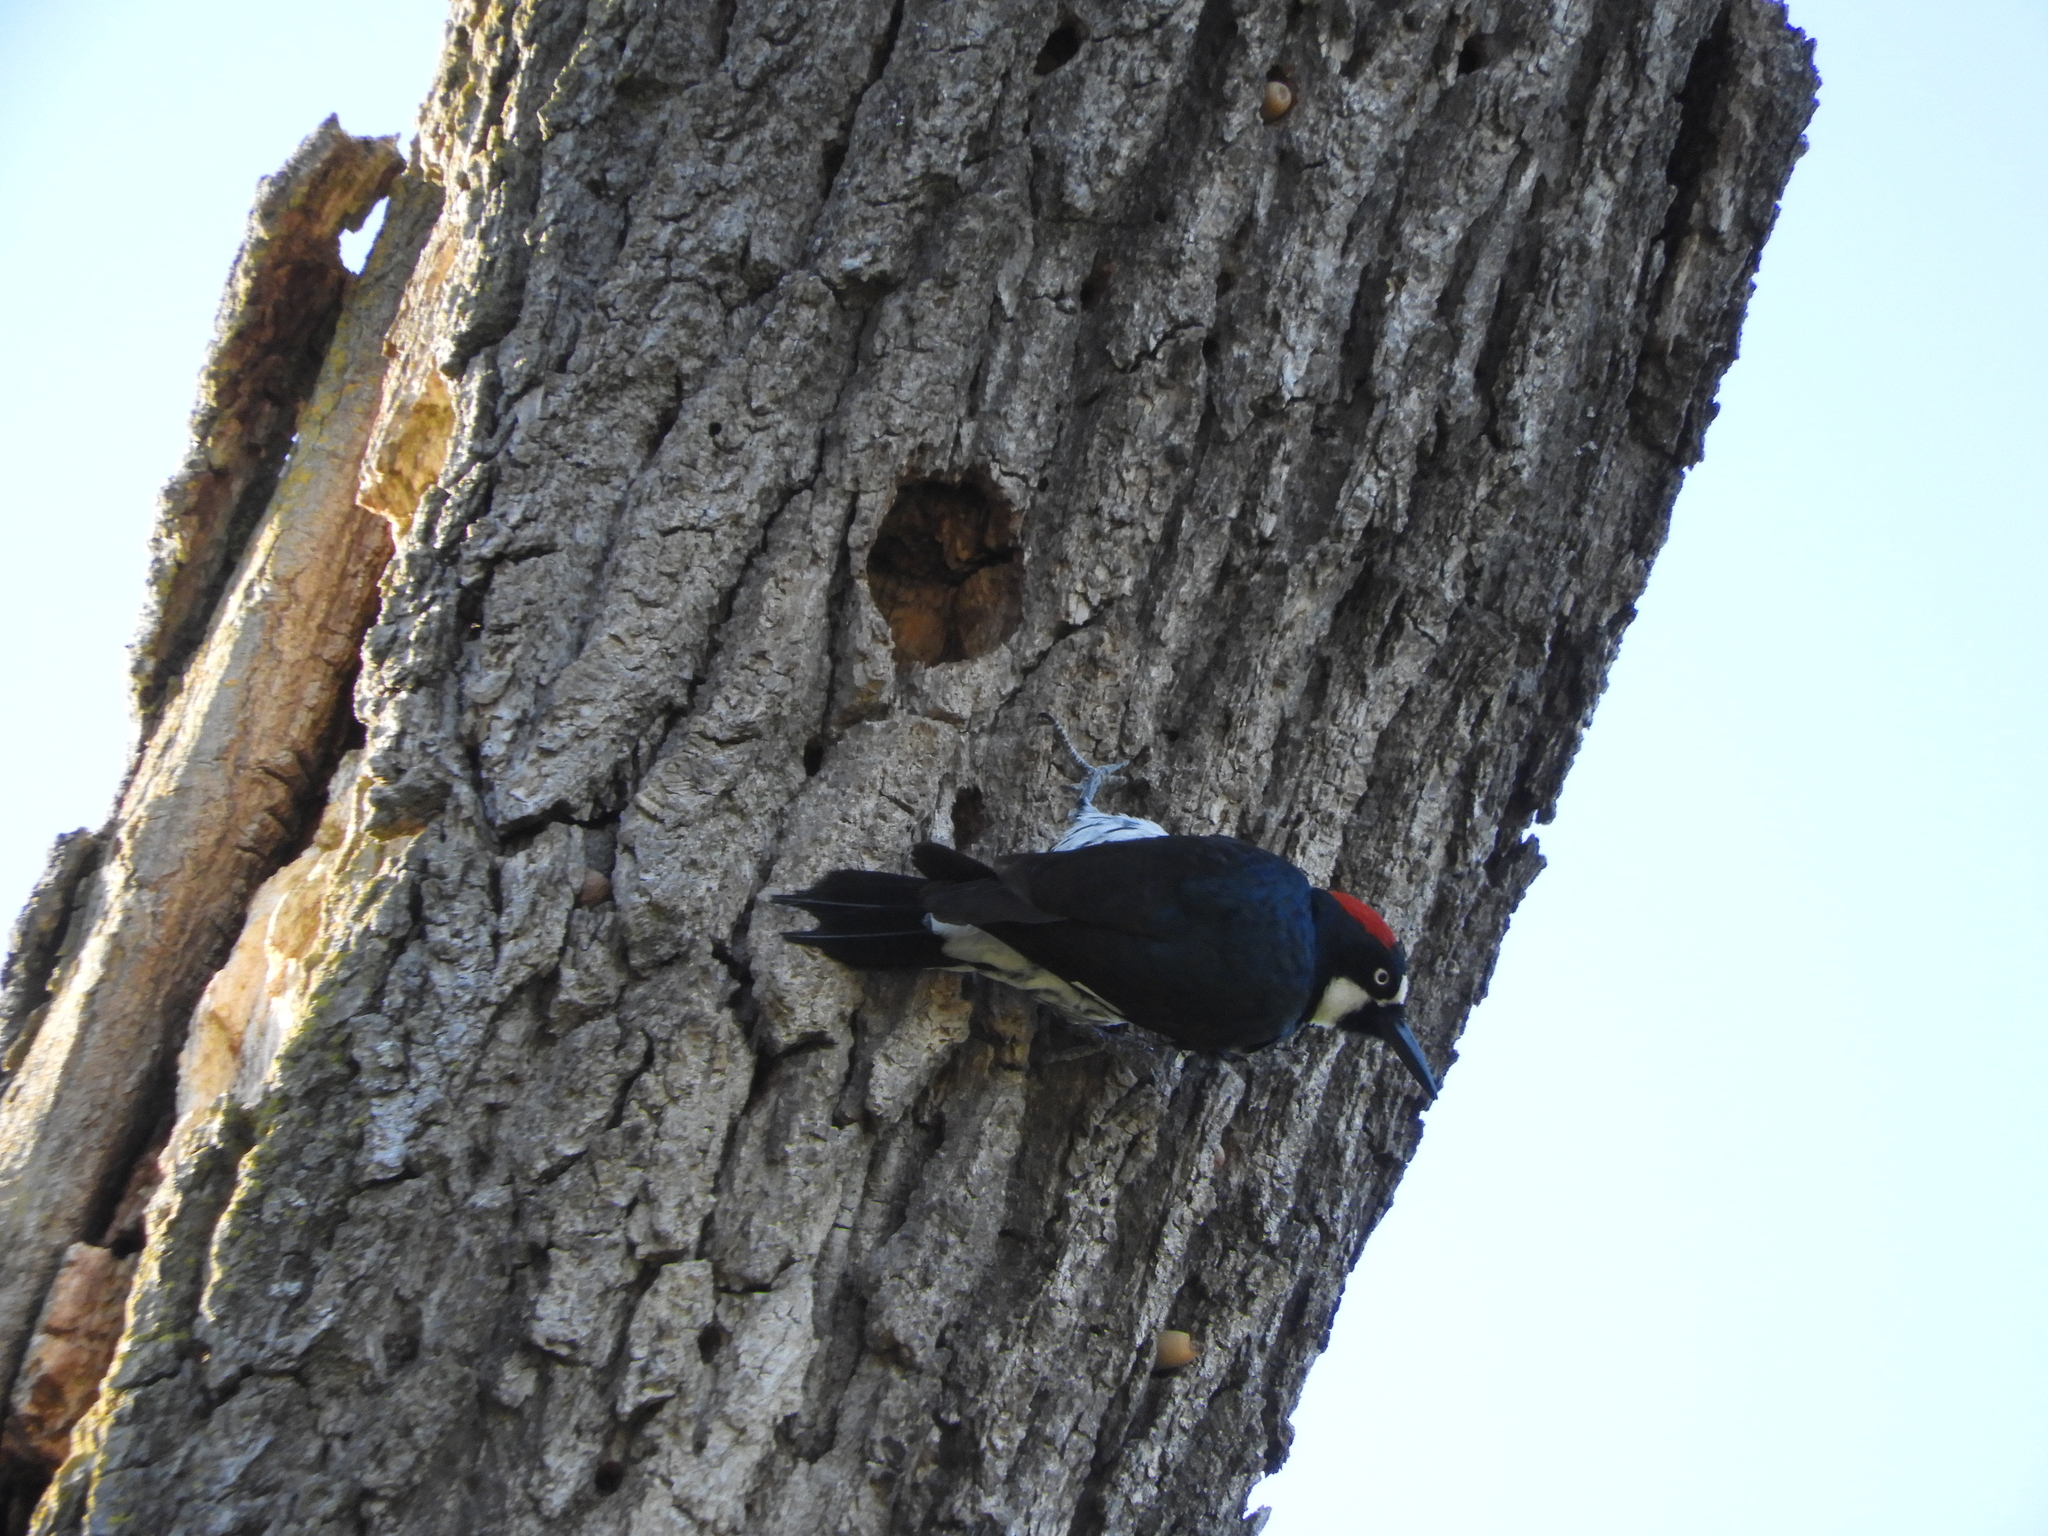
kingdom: Animalia
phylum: Chordata
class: Aves
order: Piciformes
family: Picidae
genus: Melanerpes
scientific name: Melanerpes formicivorus
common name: Acorn woodpecker
